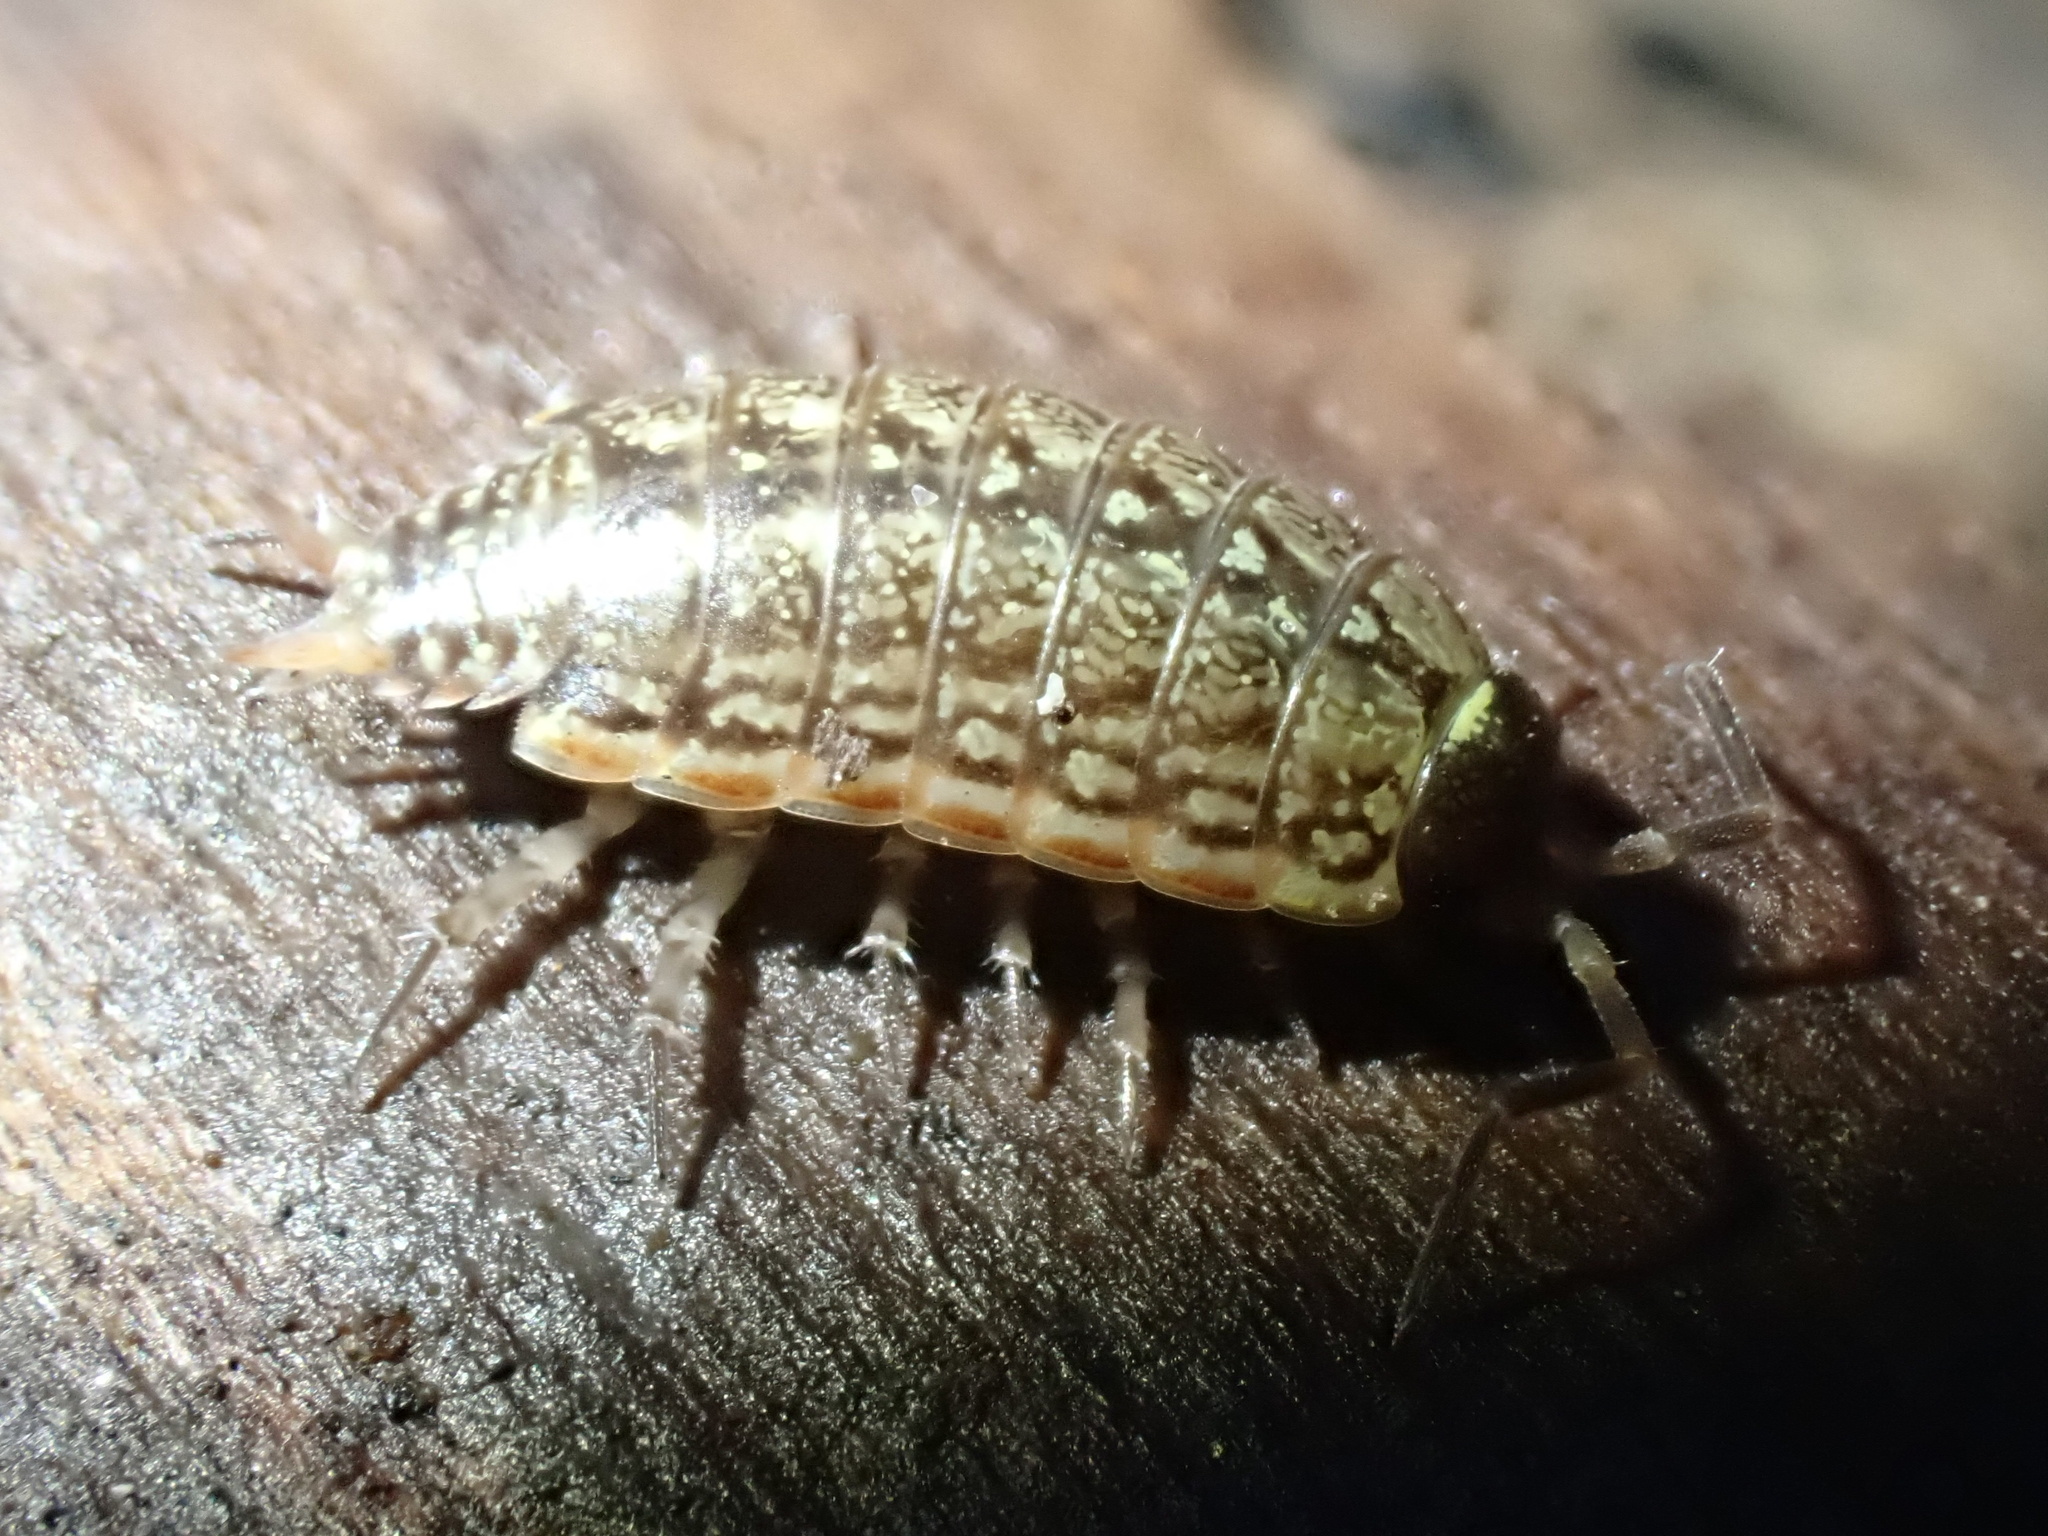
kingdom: Animalia
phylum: Arthropoda
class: Malacostraca
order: Isopoda
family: Philosciidae
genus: Philoscia
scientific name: Philoscia muscorum
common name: Common striped woodlouse
